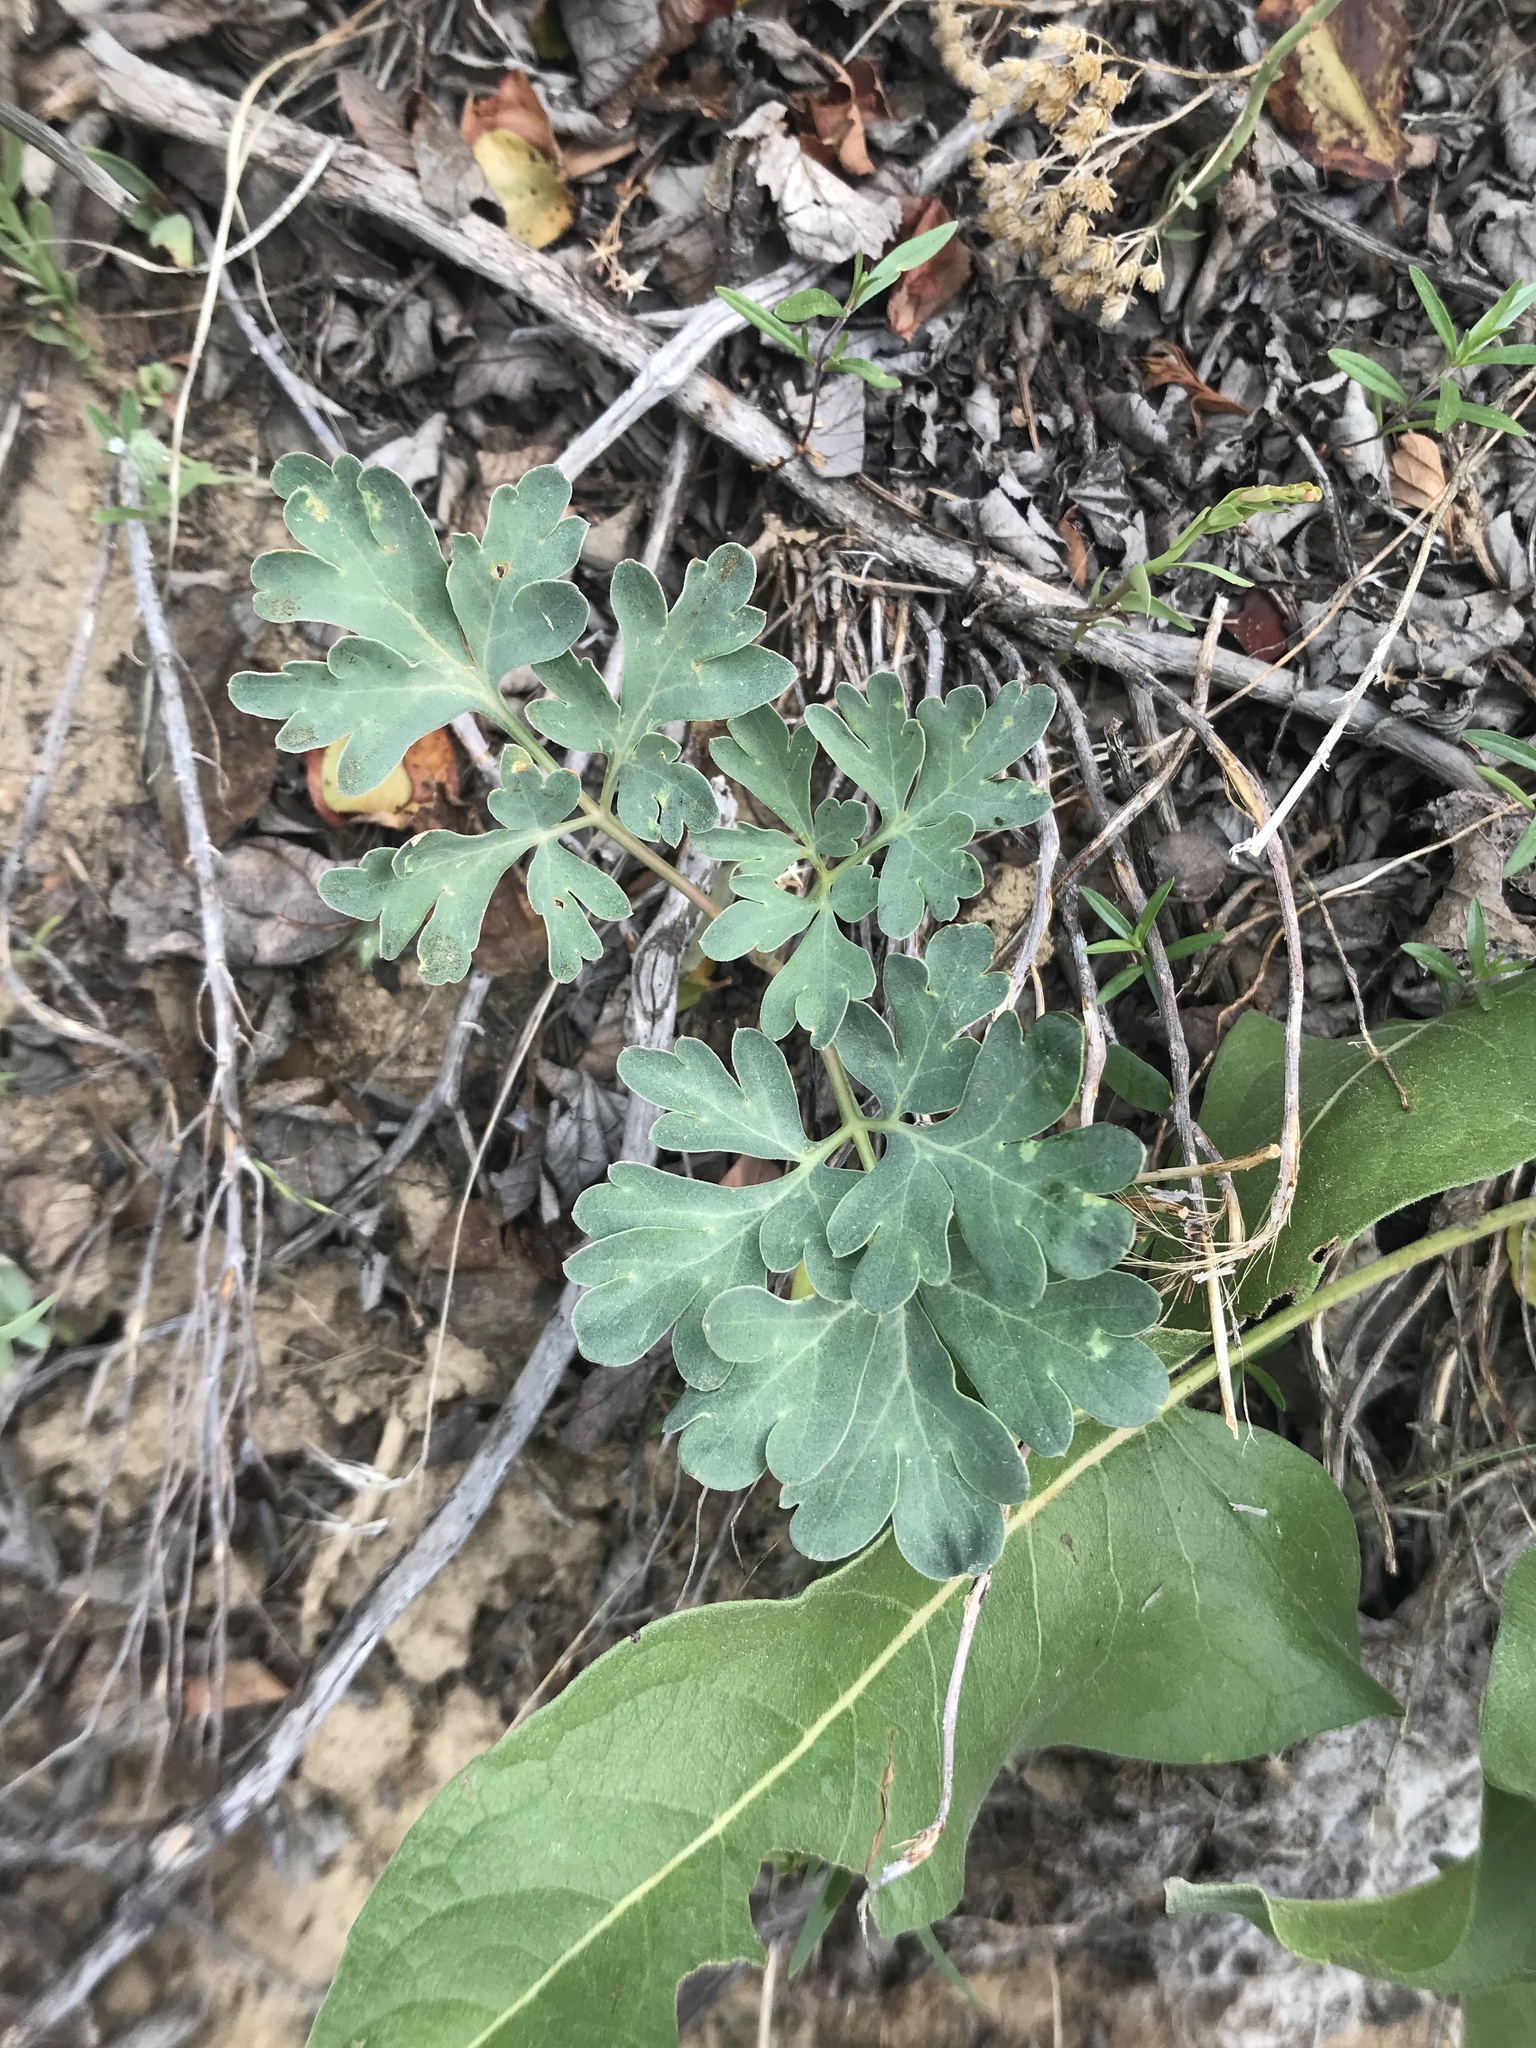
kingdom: Plantae
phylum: Tracheophyta
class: Magnoliopsida
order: Saxifragales
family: Paeoniaceae
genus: Paeonia
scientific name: Paeonia brownii
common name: Brown's peony
